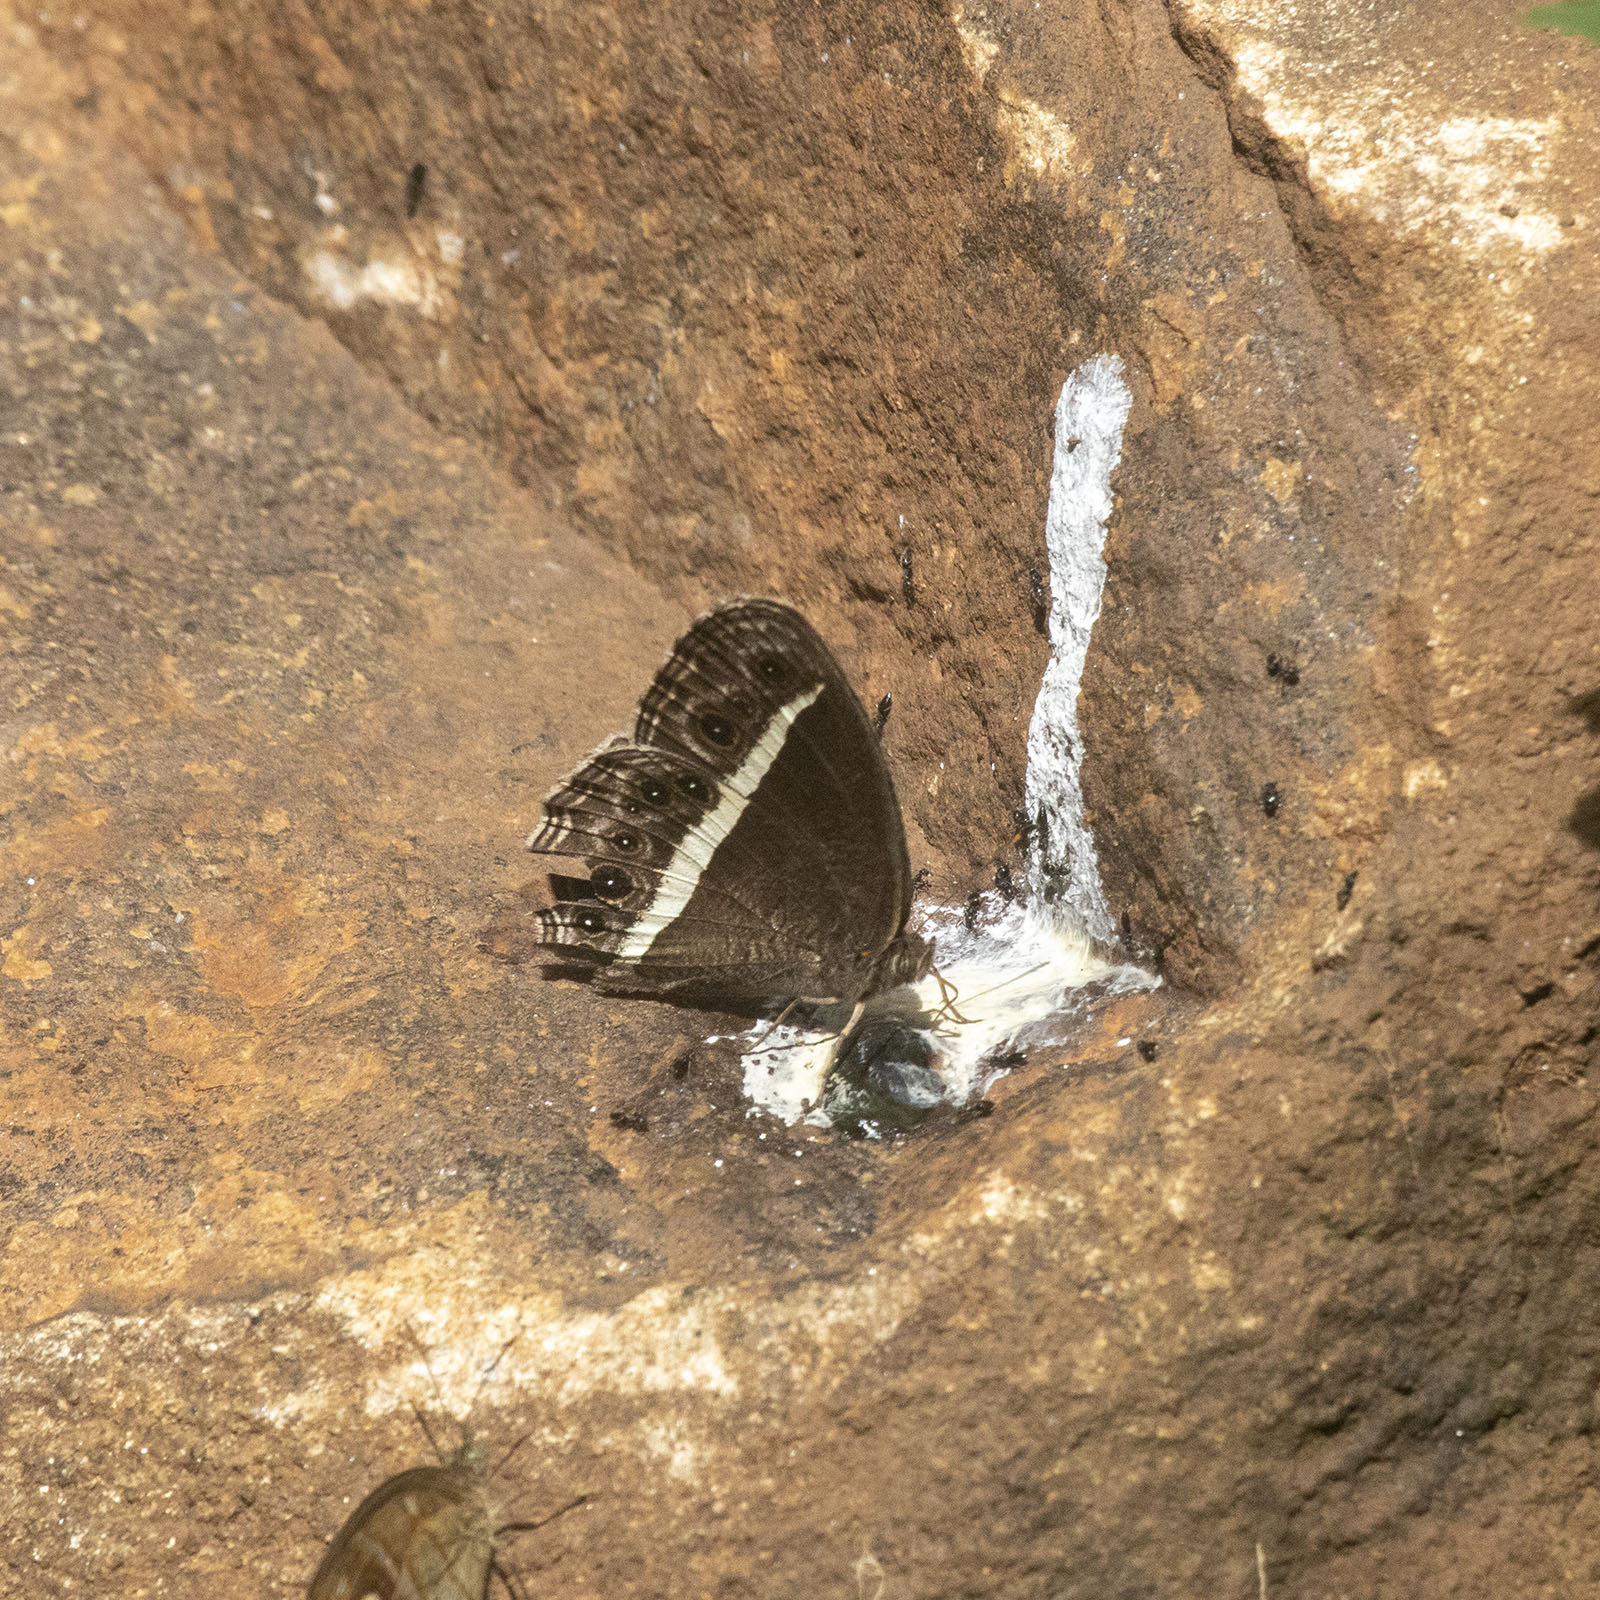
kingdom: Animalia
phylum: Arthropoda
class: Insecta
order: Lepidoptera
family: Nymphalidae
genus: Mycalesis
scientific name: Mycalesis Telinga spec
